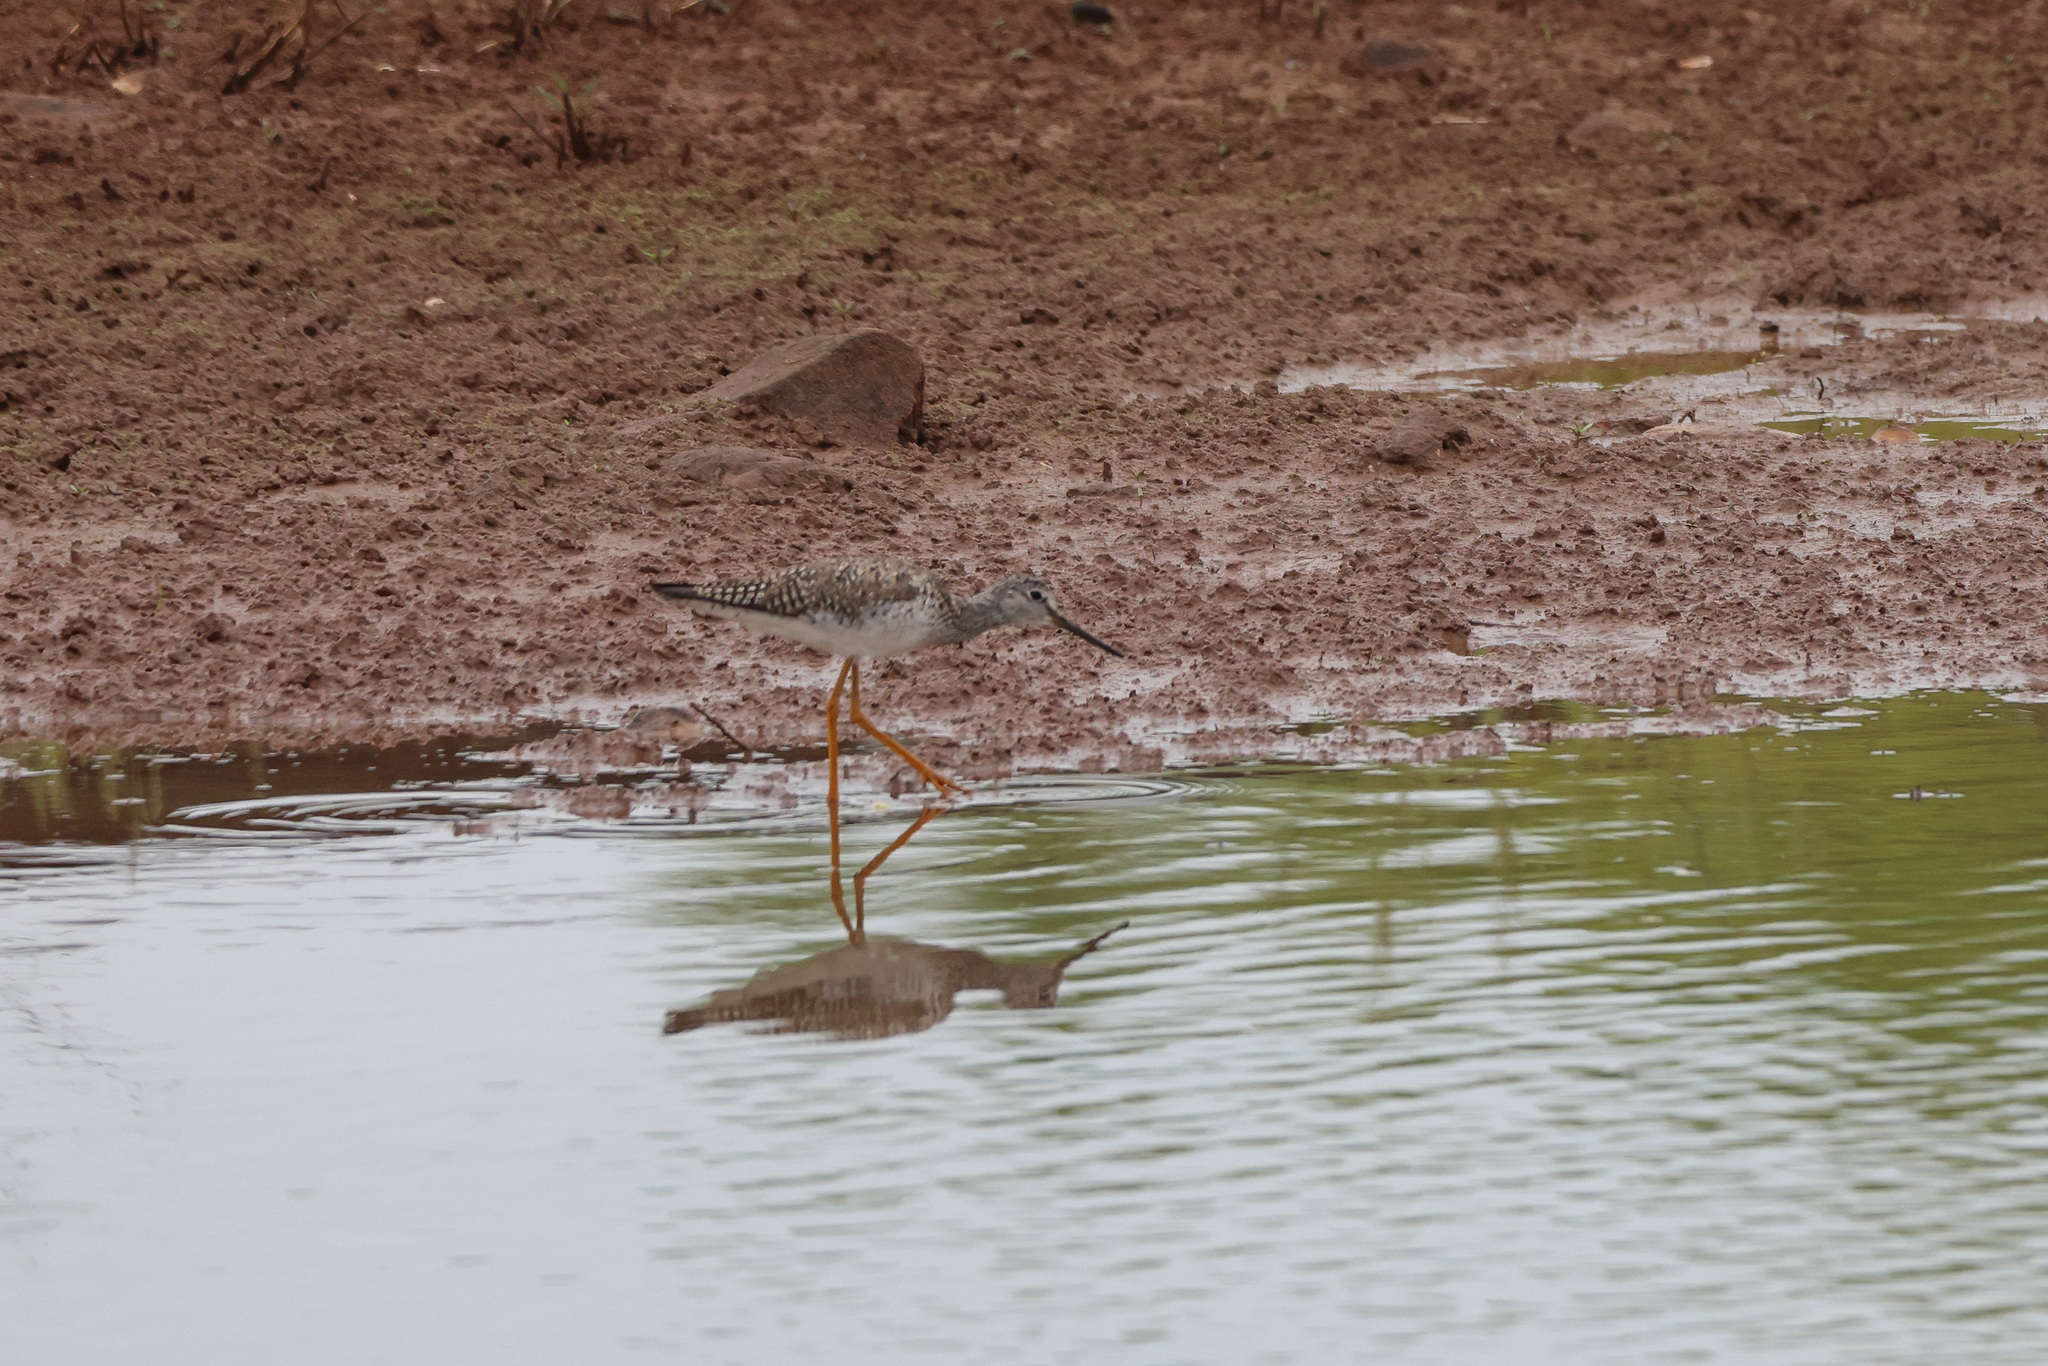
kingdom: Animalia
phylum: Chordata
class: Aves
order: Charadriiformes
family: Scolopacidae
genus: Tringa
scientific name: Tringa melanoleuca
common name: Greater yellowlegs
